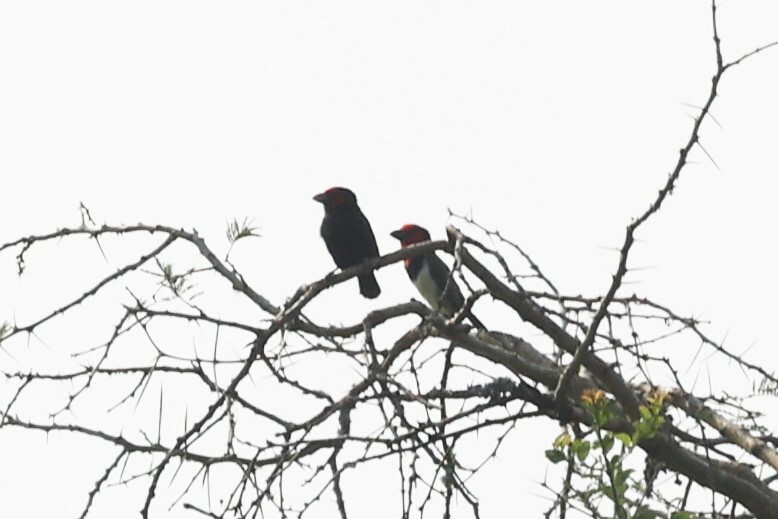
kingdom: Animalia
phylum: Chordata
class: Aves
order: Piciformes
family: Lybiidae
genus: Lybius
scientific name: Lybius torquatus
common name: Black-collared barbet
